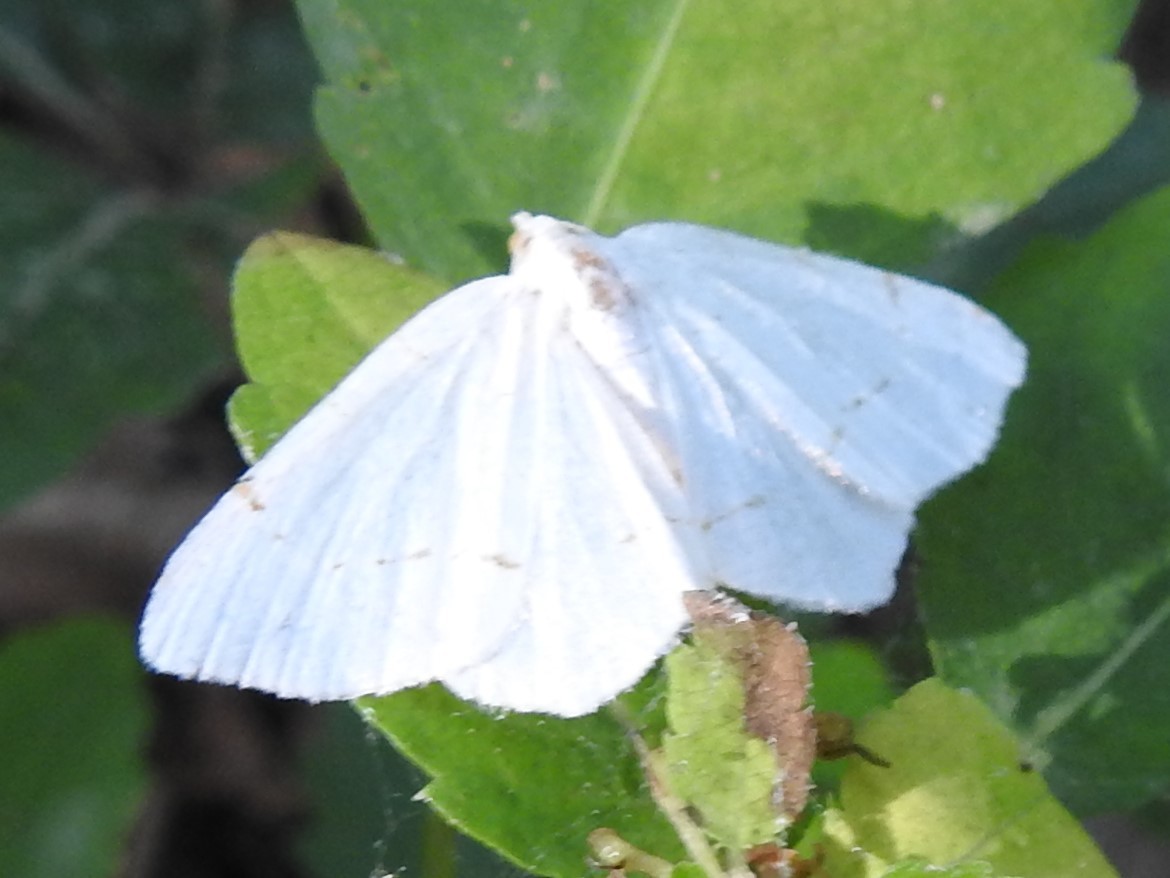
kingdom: Animalia
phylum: Arthropoda
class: Insecta
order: Lepidoptera
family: Geometridae
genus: Macaria
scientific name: Macaria pustularia
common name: Lesser maple spanworm moth
